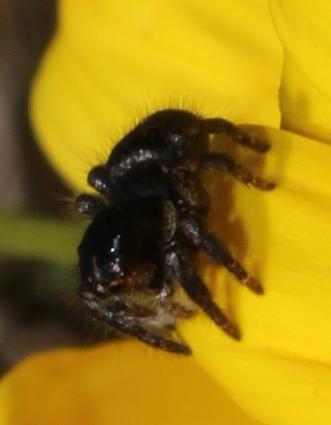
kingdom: Animalia
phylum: Arthropoda
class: Arachnida
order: Araneae
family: Salticidae
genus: Baryphas
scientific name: Baryphas ahenus
